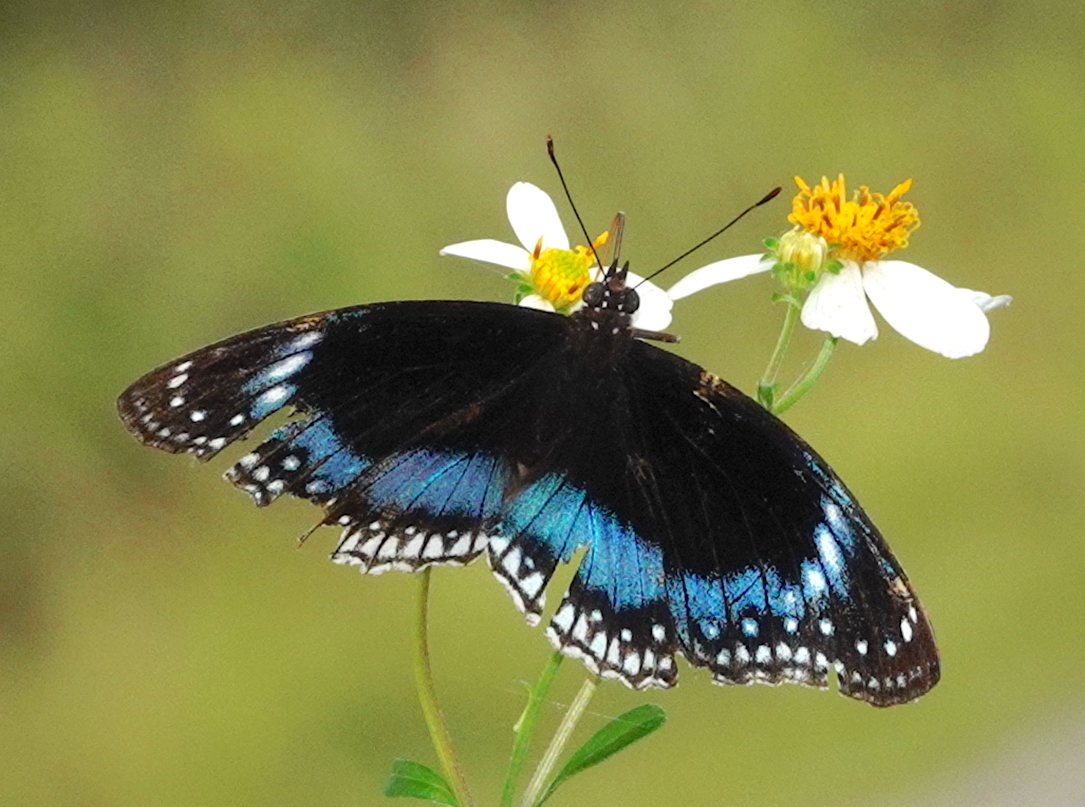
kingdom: Animalia
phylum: Arthropoda
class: Insecta
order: Lepidoptera
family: Nymphalidae
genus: Hypolimnas
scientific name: Hypolimnas alimena
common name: Blue-banded eggfly
